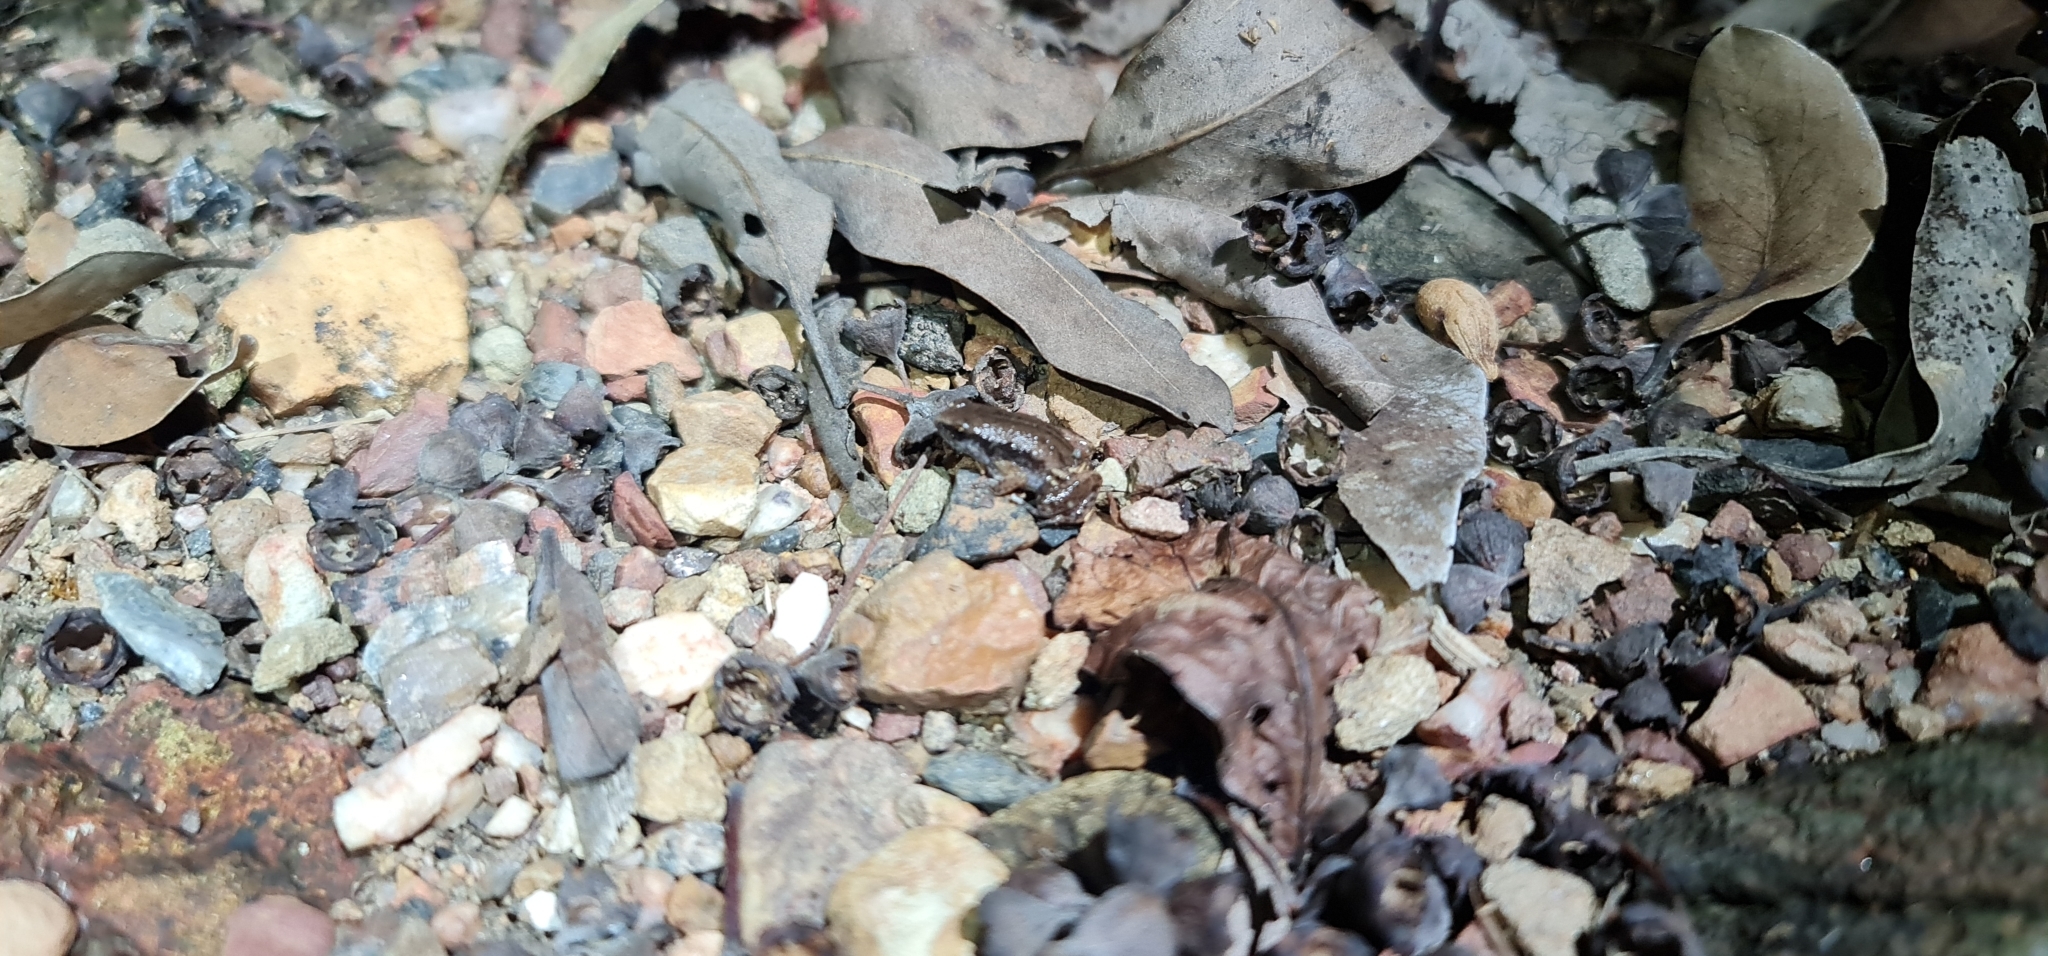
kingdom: Animalia
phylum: Chordata
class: Amphibia
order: Anura
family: Microhylidae
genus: Austrochaperina
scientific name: Austrochaperina adelphe
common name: Northern territory frog
